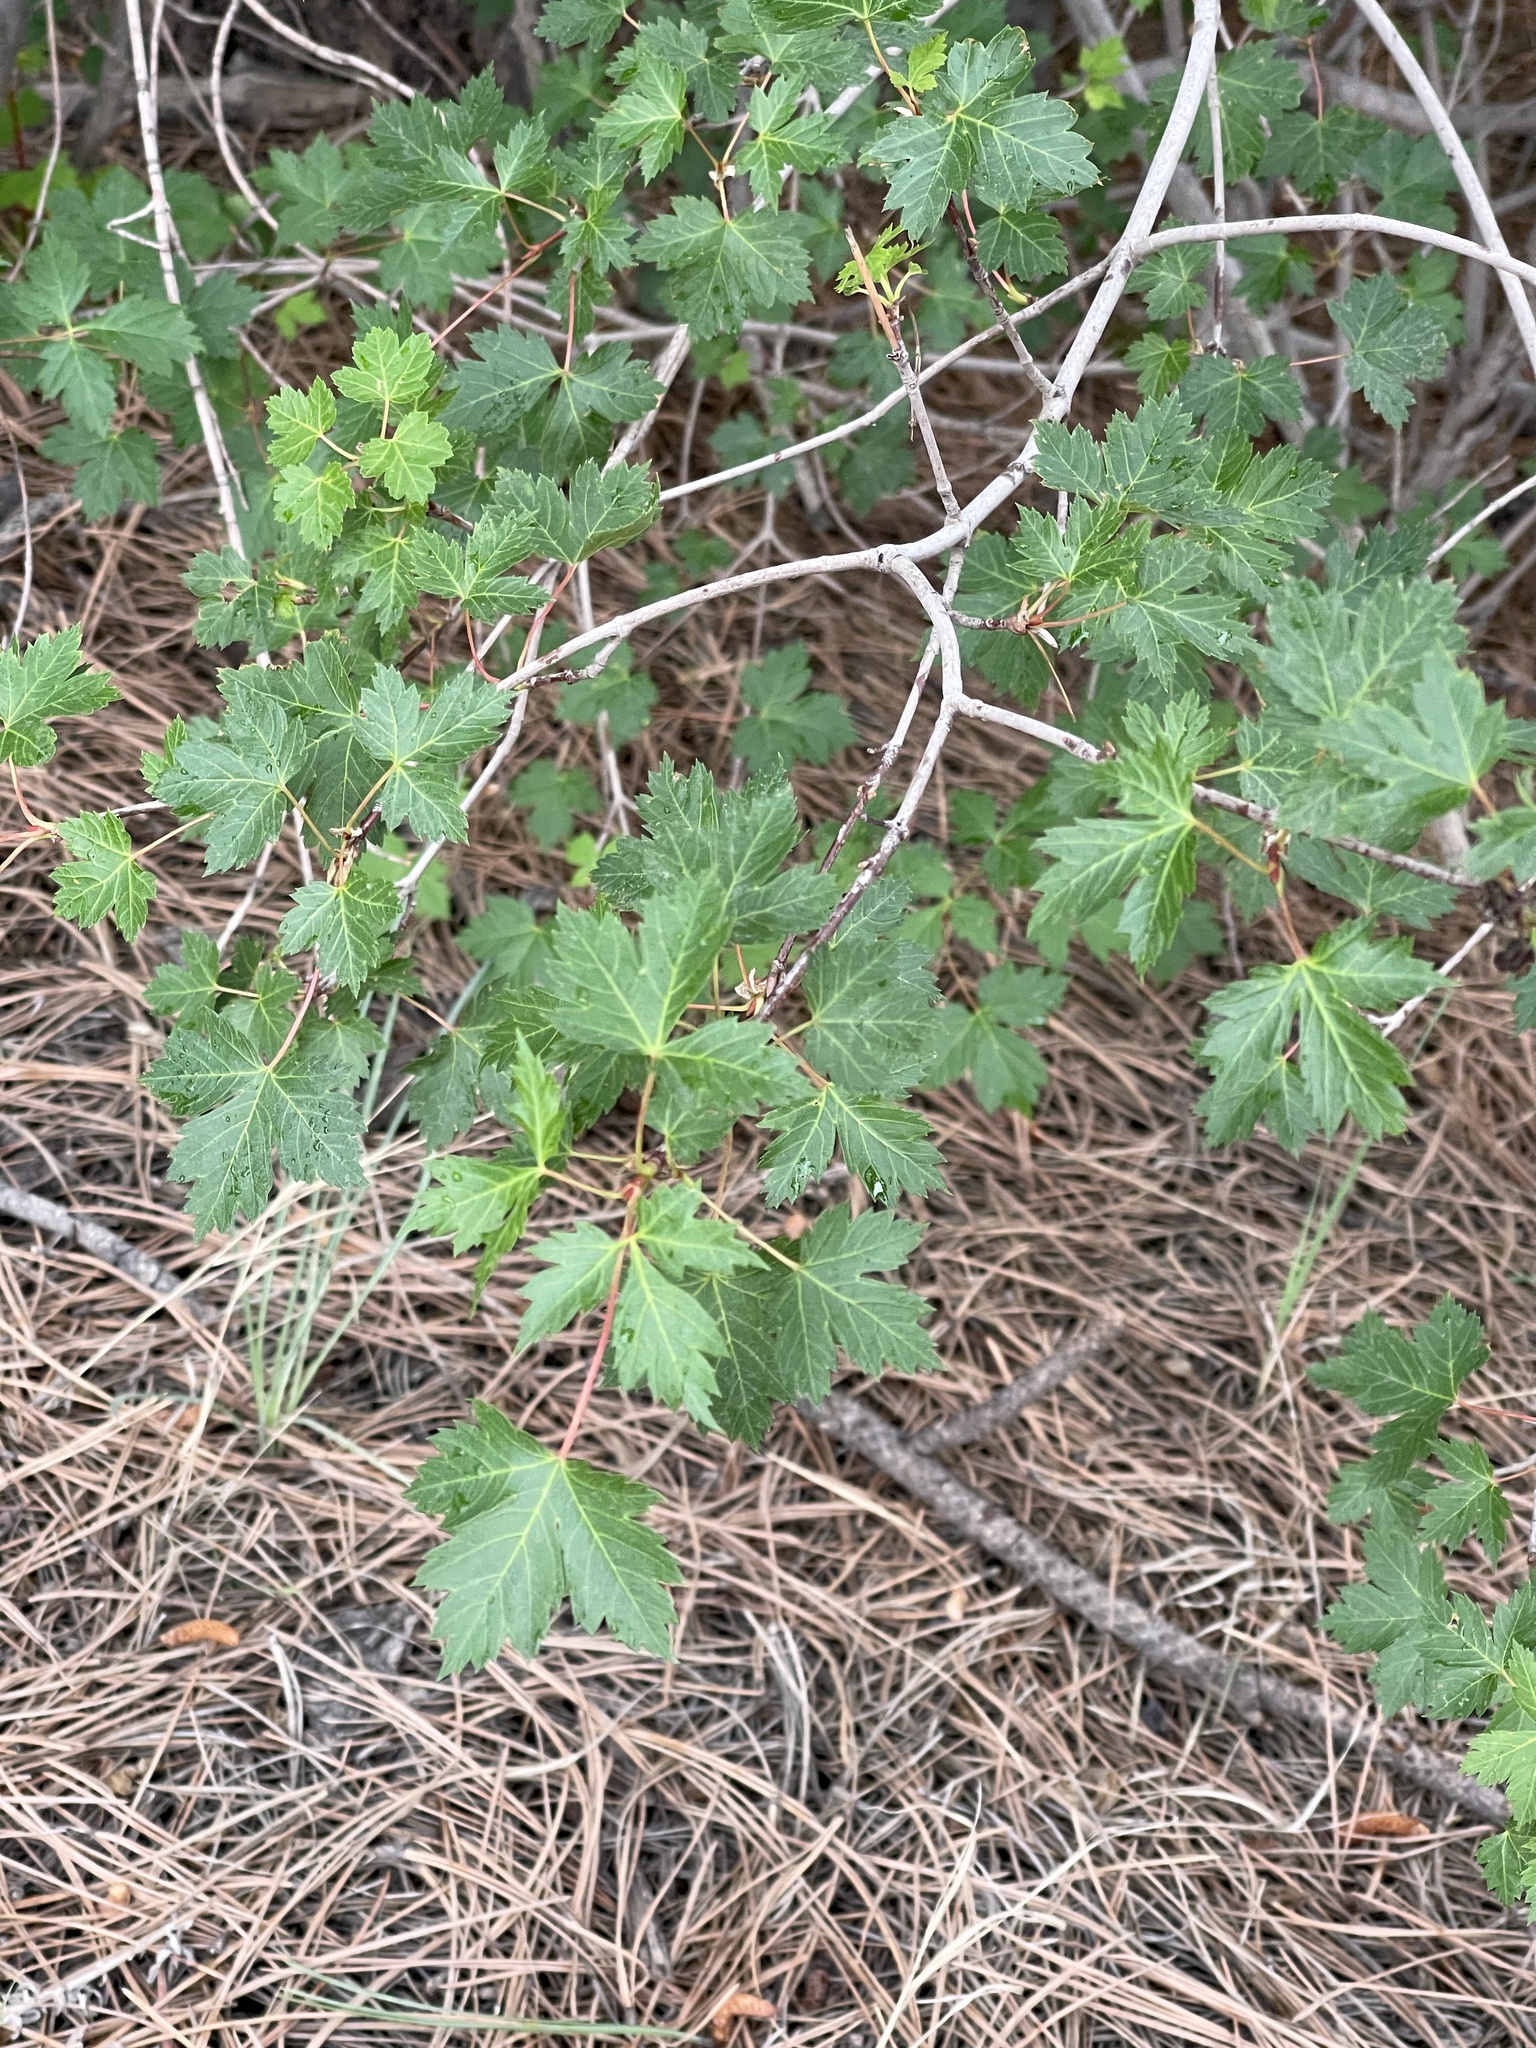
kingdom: Plantae
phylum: Tracheophyta
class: Magnoliopsida
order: Sapindales
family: Sapindaceae
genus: Acer
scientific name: Acer glabrum
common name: Rocky mountain maple
